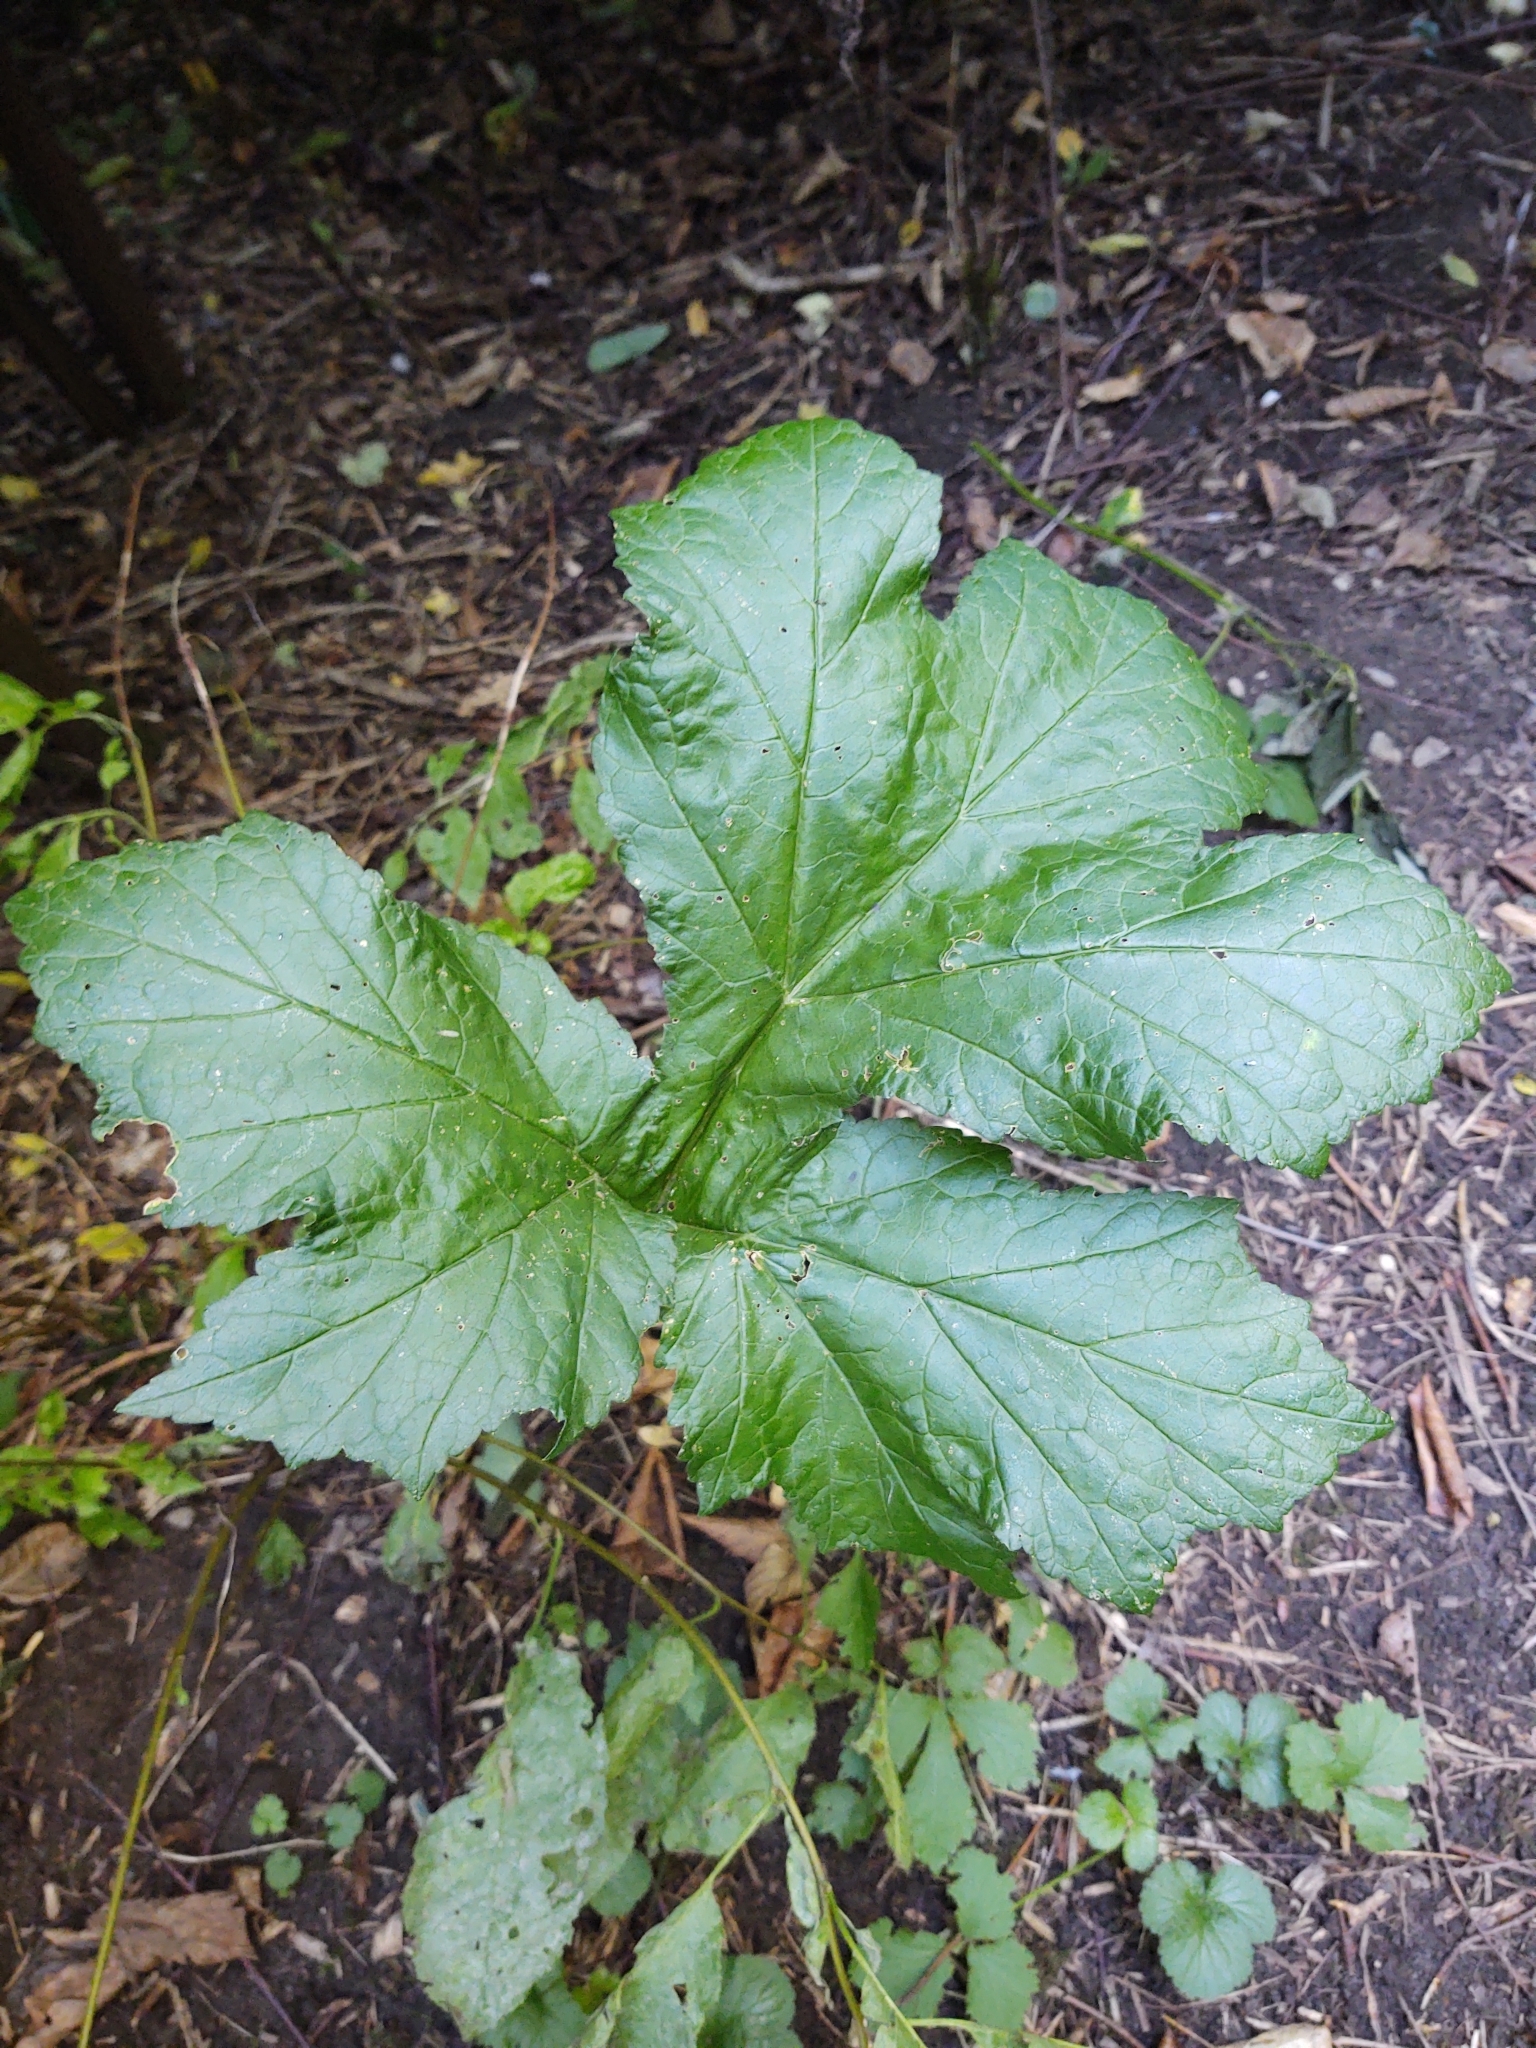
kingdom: Plantae
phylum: Tracheophyta
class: Magnoliopsida
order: Apiales
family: Apiaceae
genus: Heracleum
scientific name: Heracleum mantegazzianum
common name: Giant hogweed
